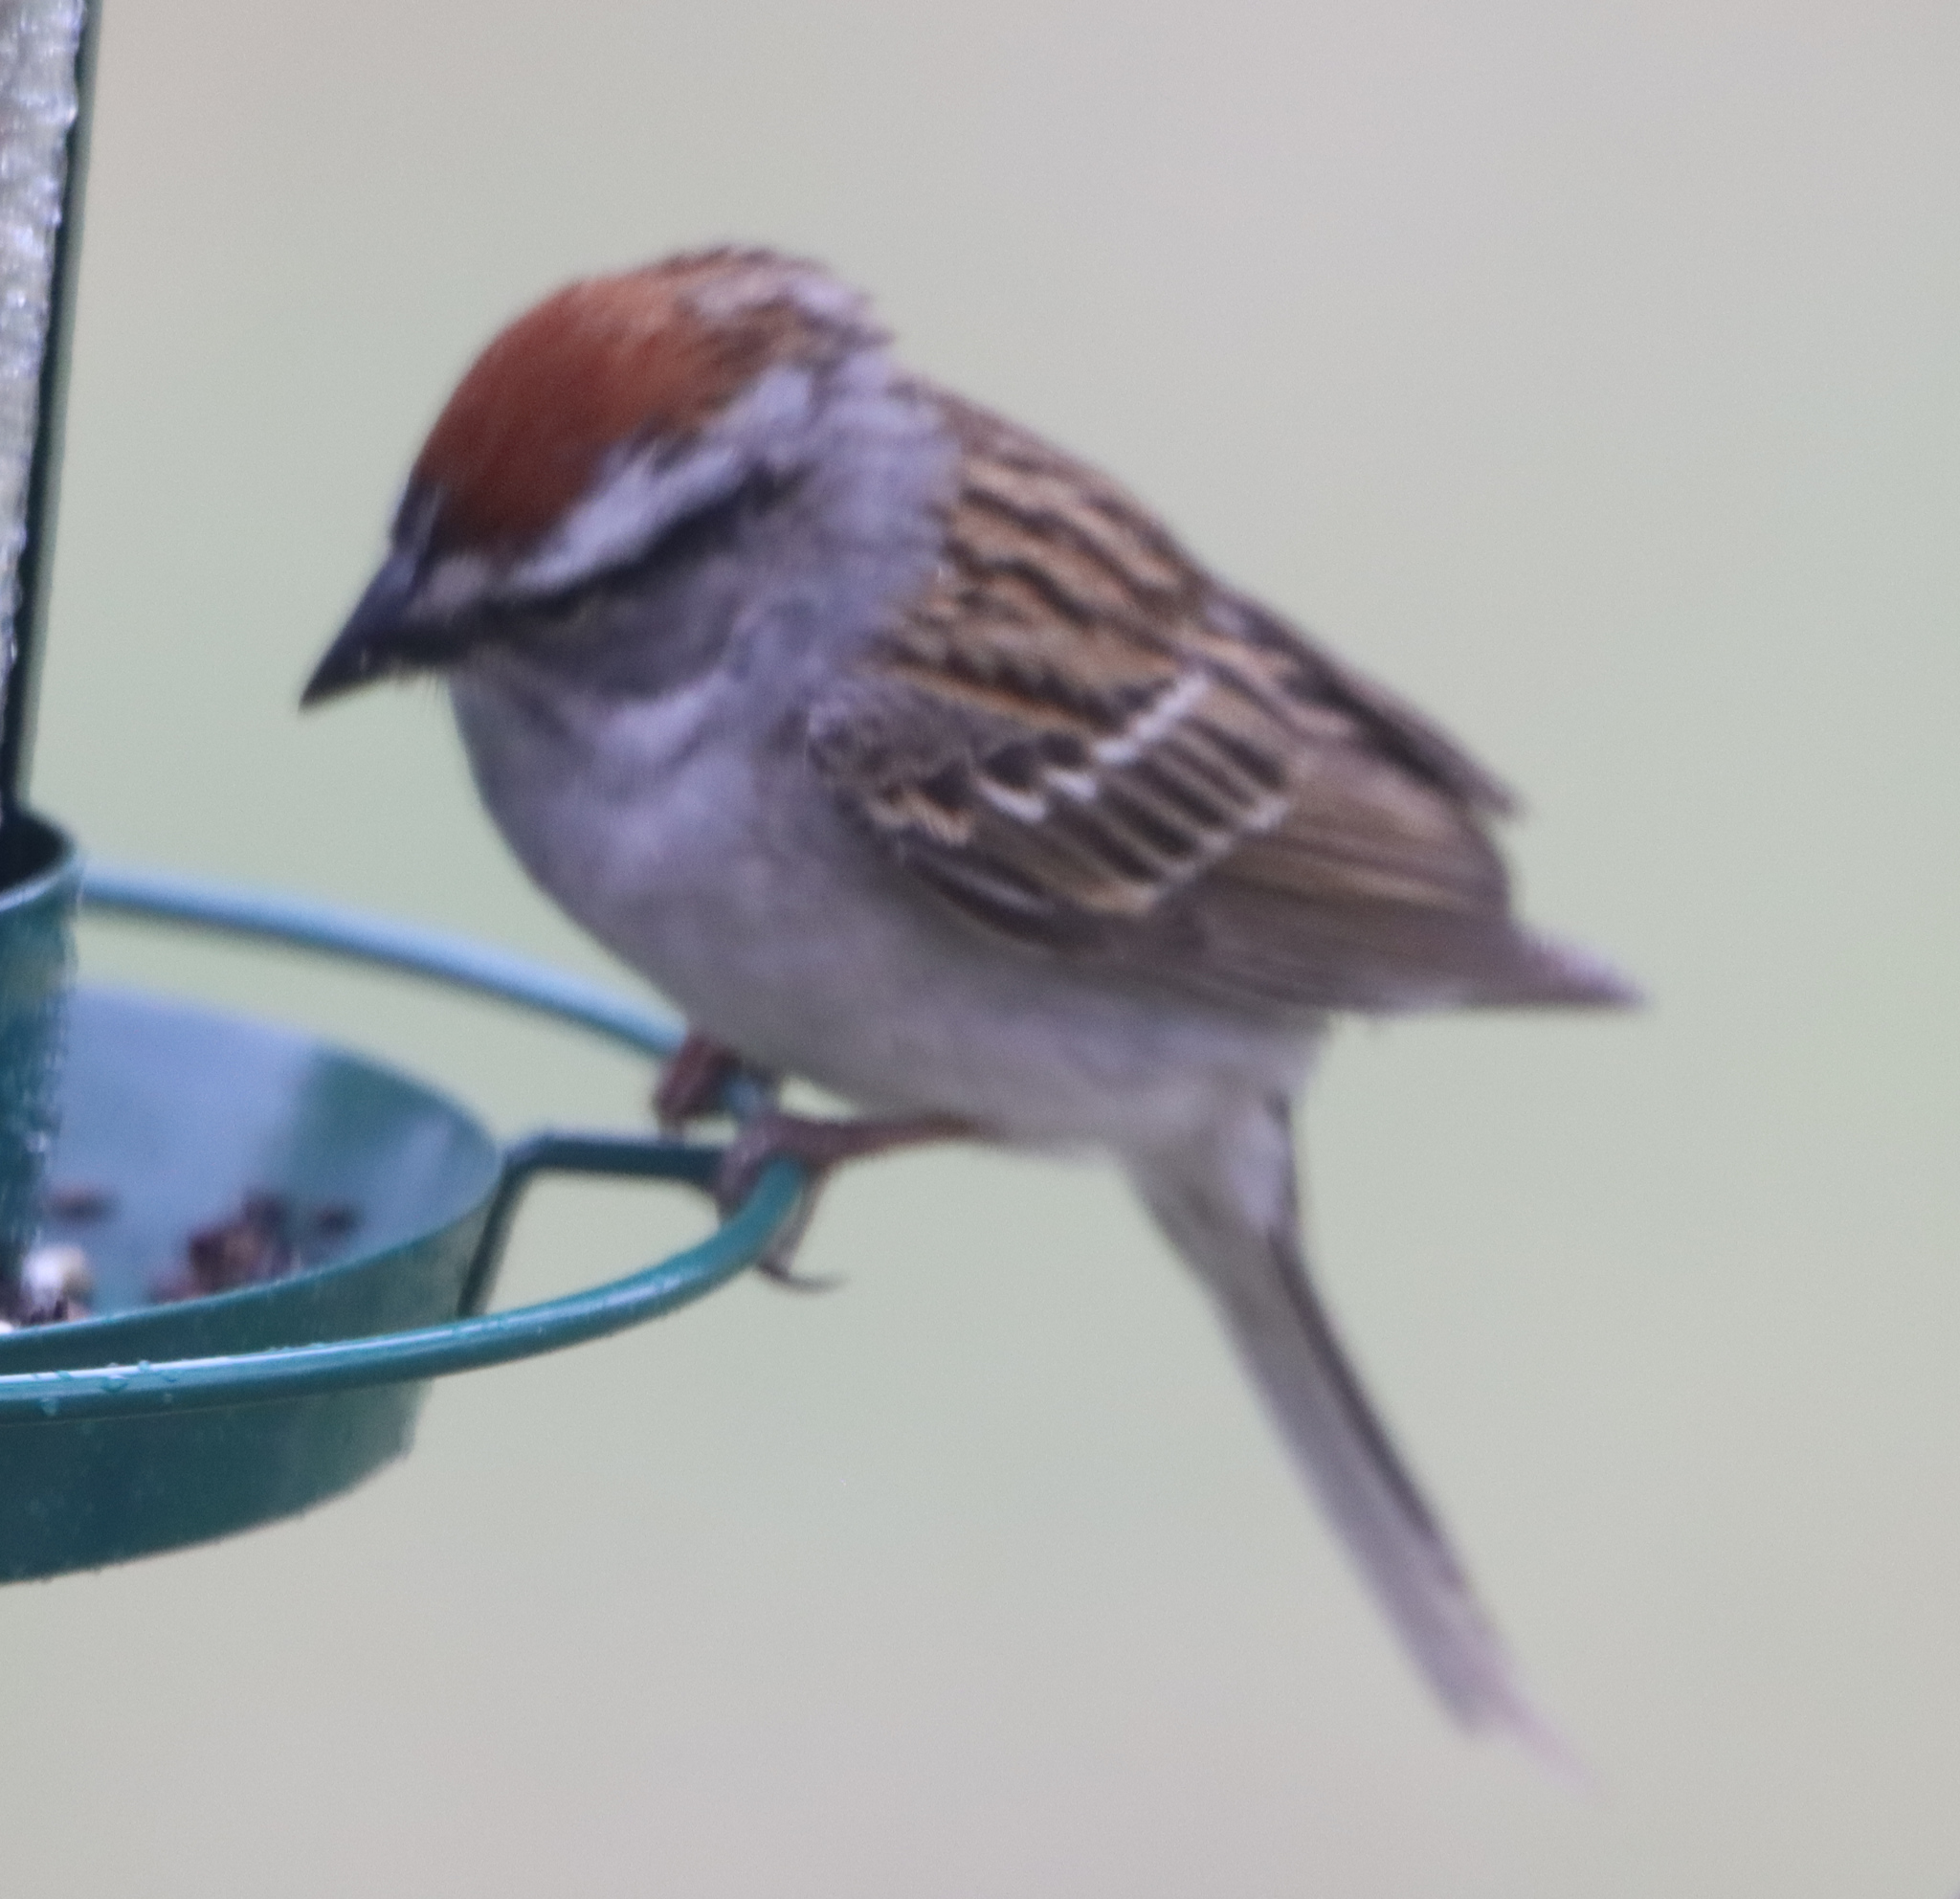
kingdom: Animalia
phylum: Chordata
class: Aves
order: Passeriformes
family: Passerellidae
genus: Spizella
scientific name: Spizella passerina
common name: Chipping sparrow
